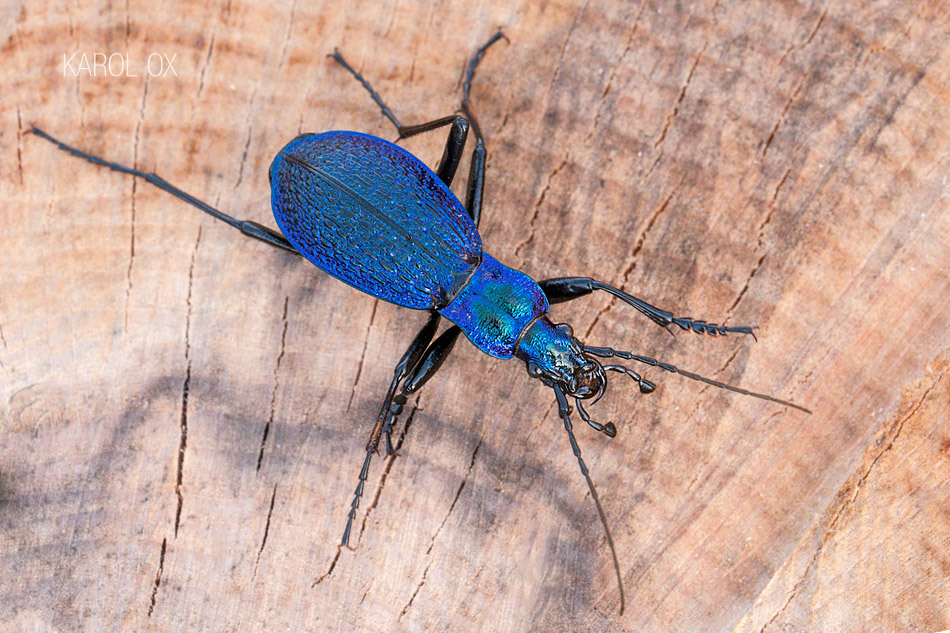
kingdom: Animalia
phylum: Arthropoda
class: Insecta
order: Coleoptera
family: Carabidae
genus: Carabus
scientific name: Carabus intricatus
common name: Blue ground beetle
